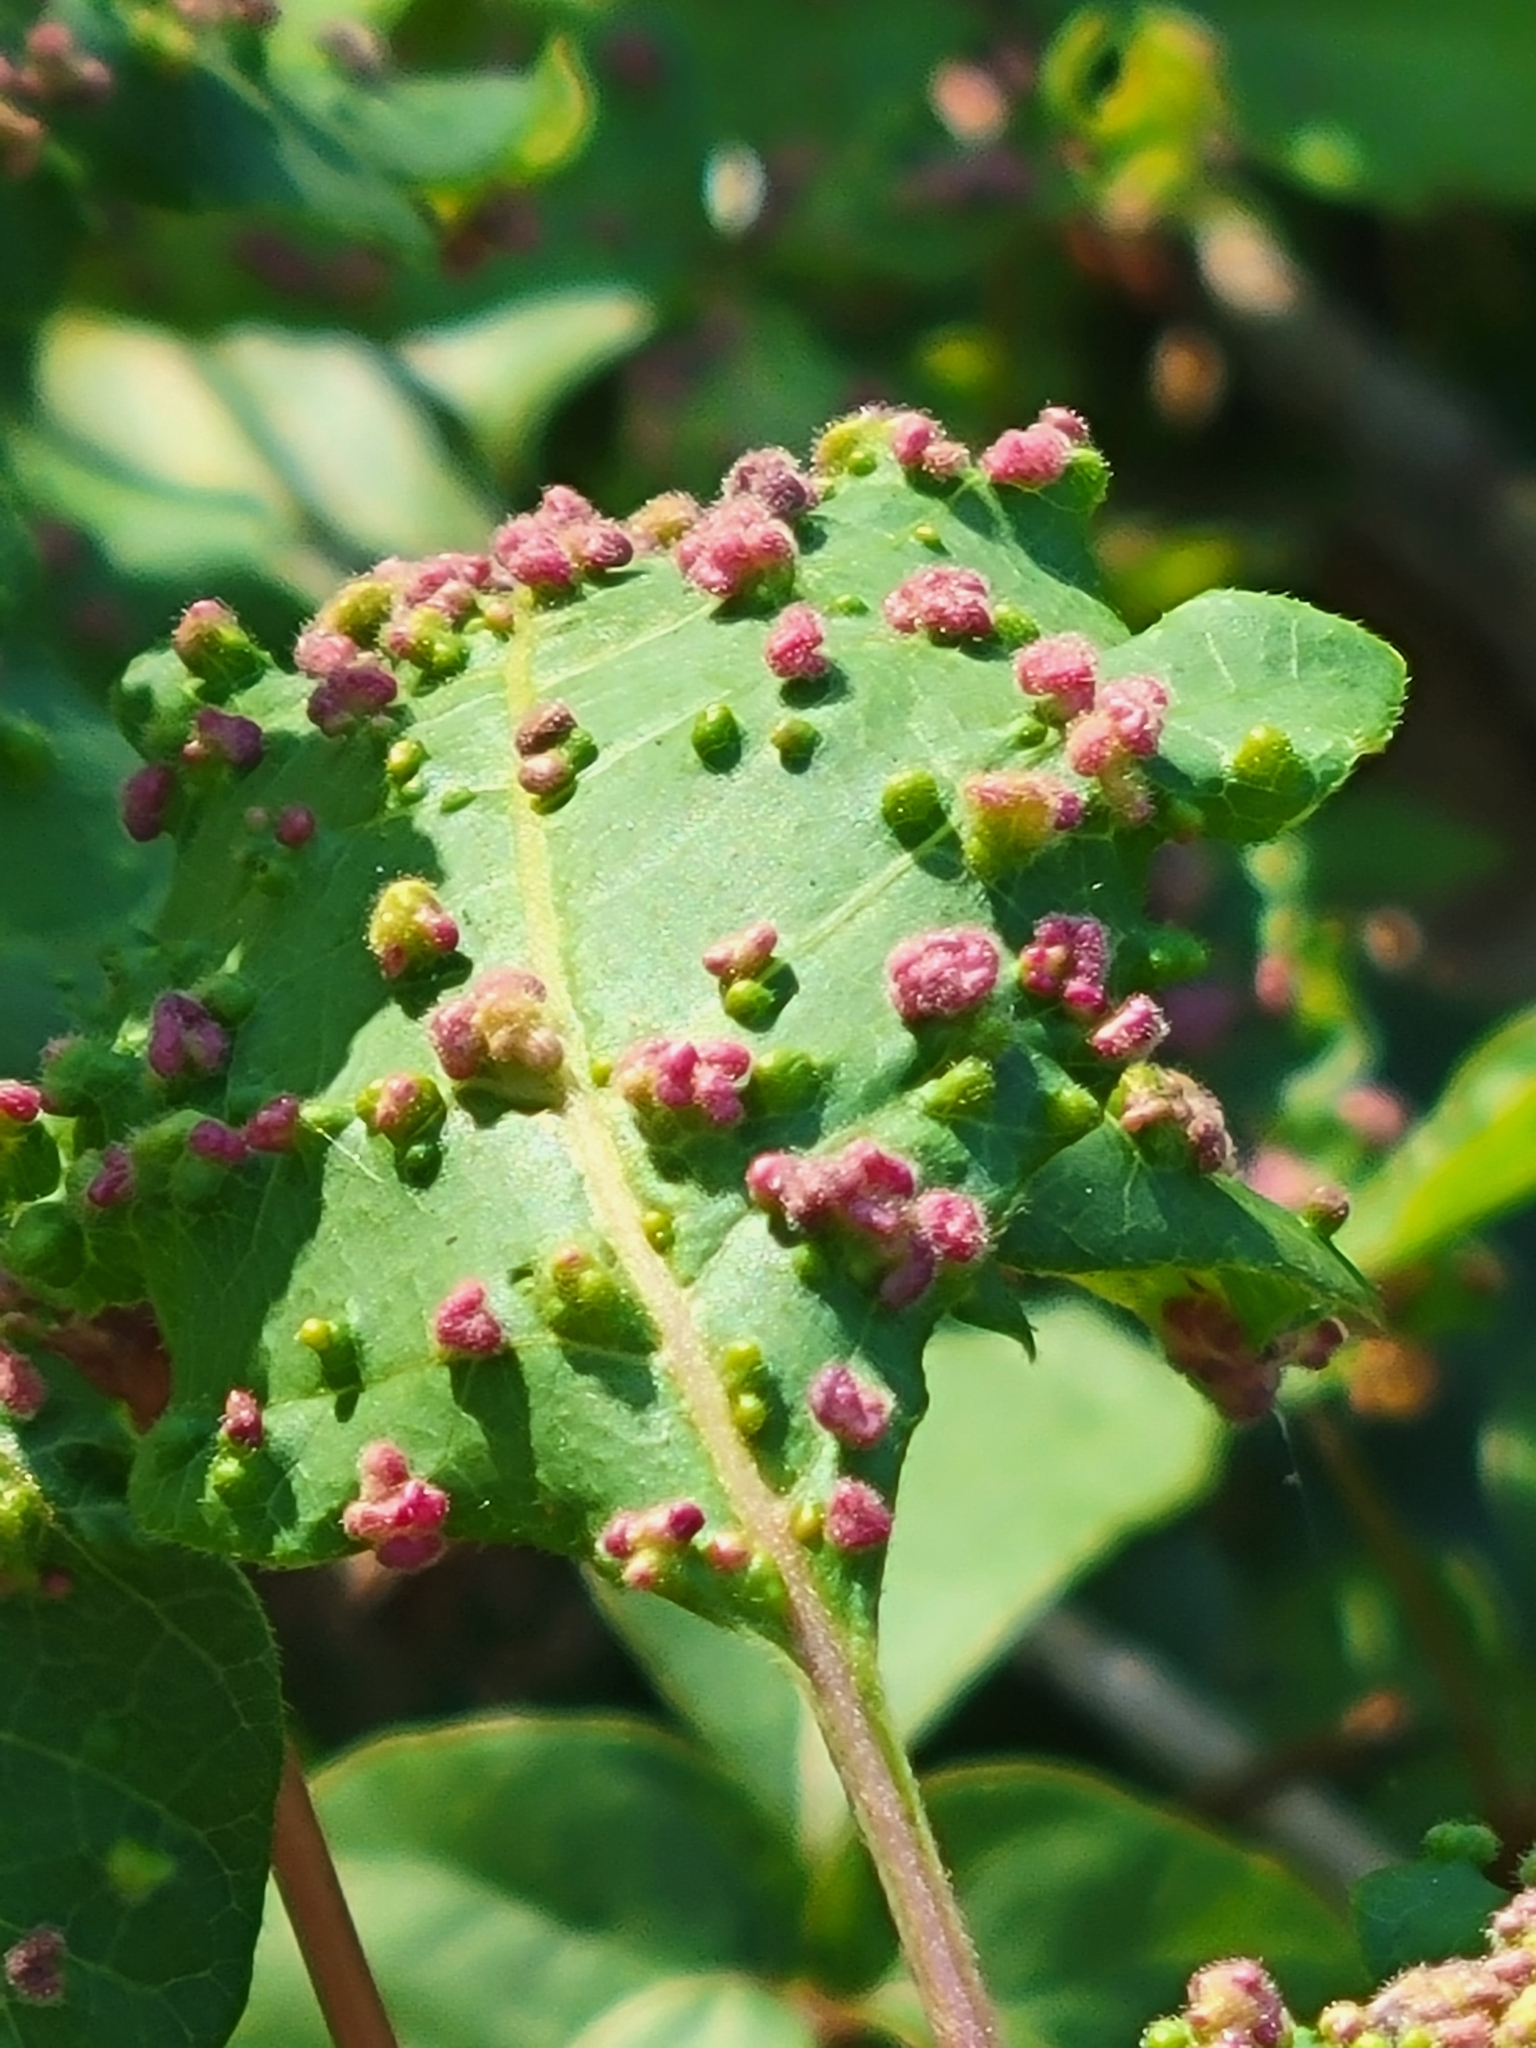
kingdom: Animalia
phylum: Arthropoda
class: Arachnida
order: Trombidiformes
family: Eriophyidae
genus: Aculops
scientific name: Aculops
